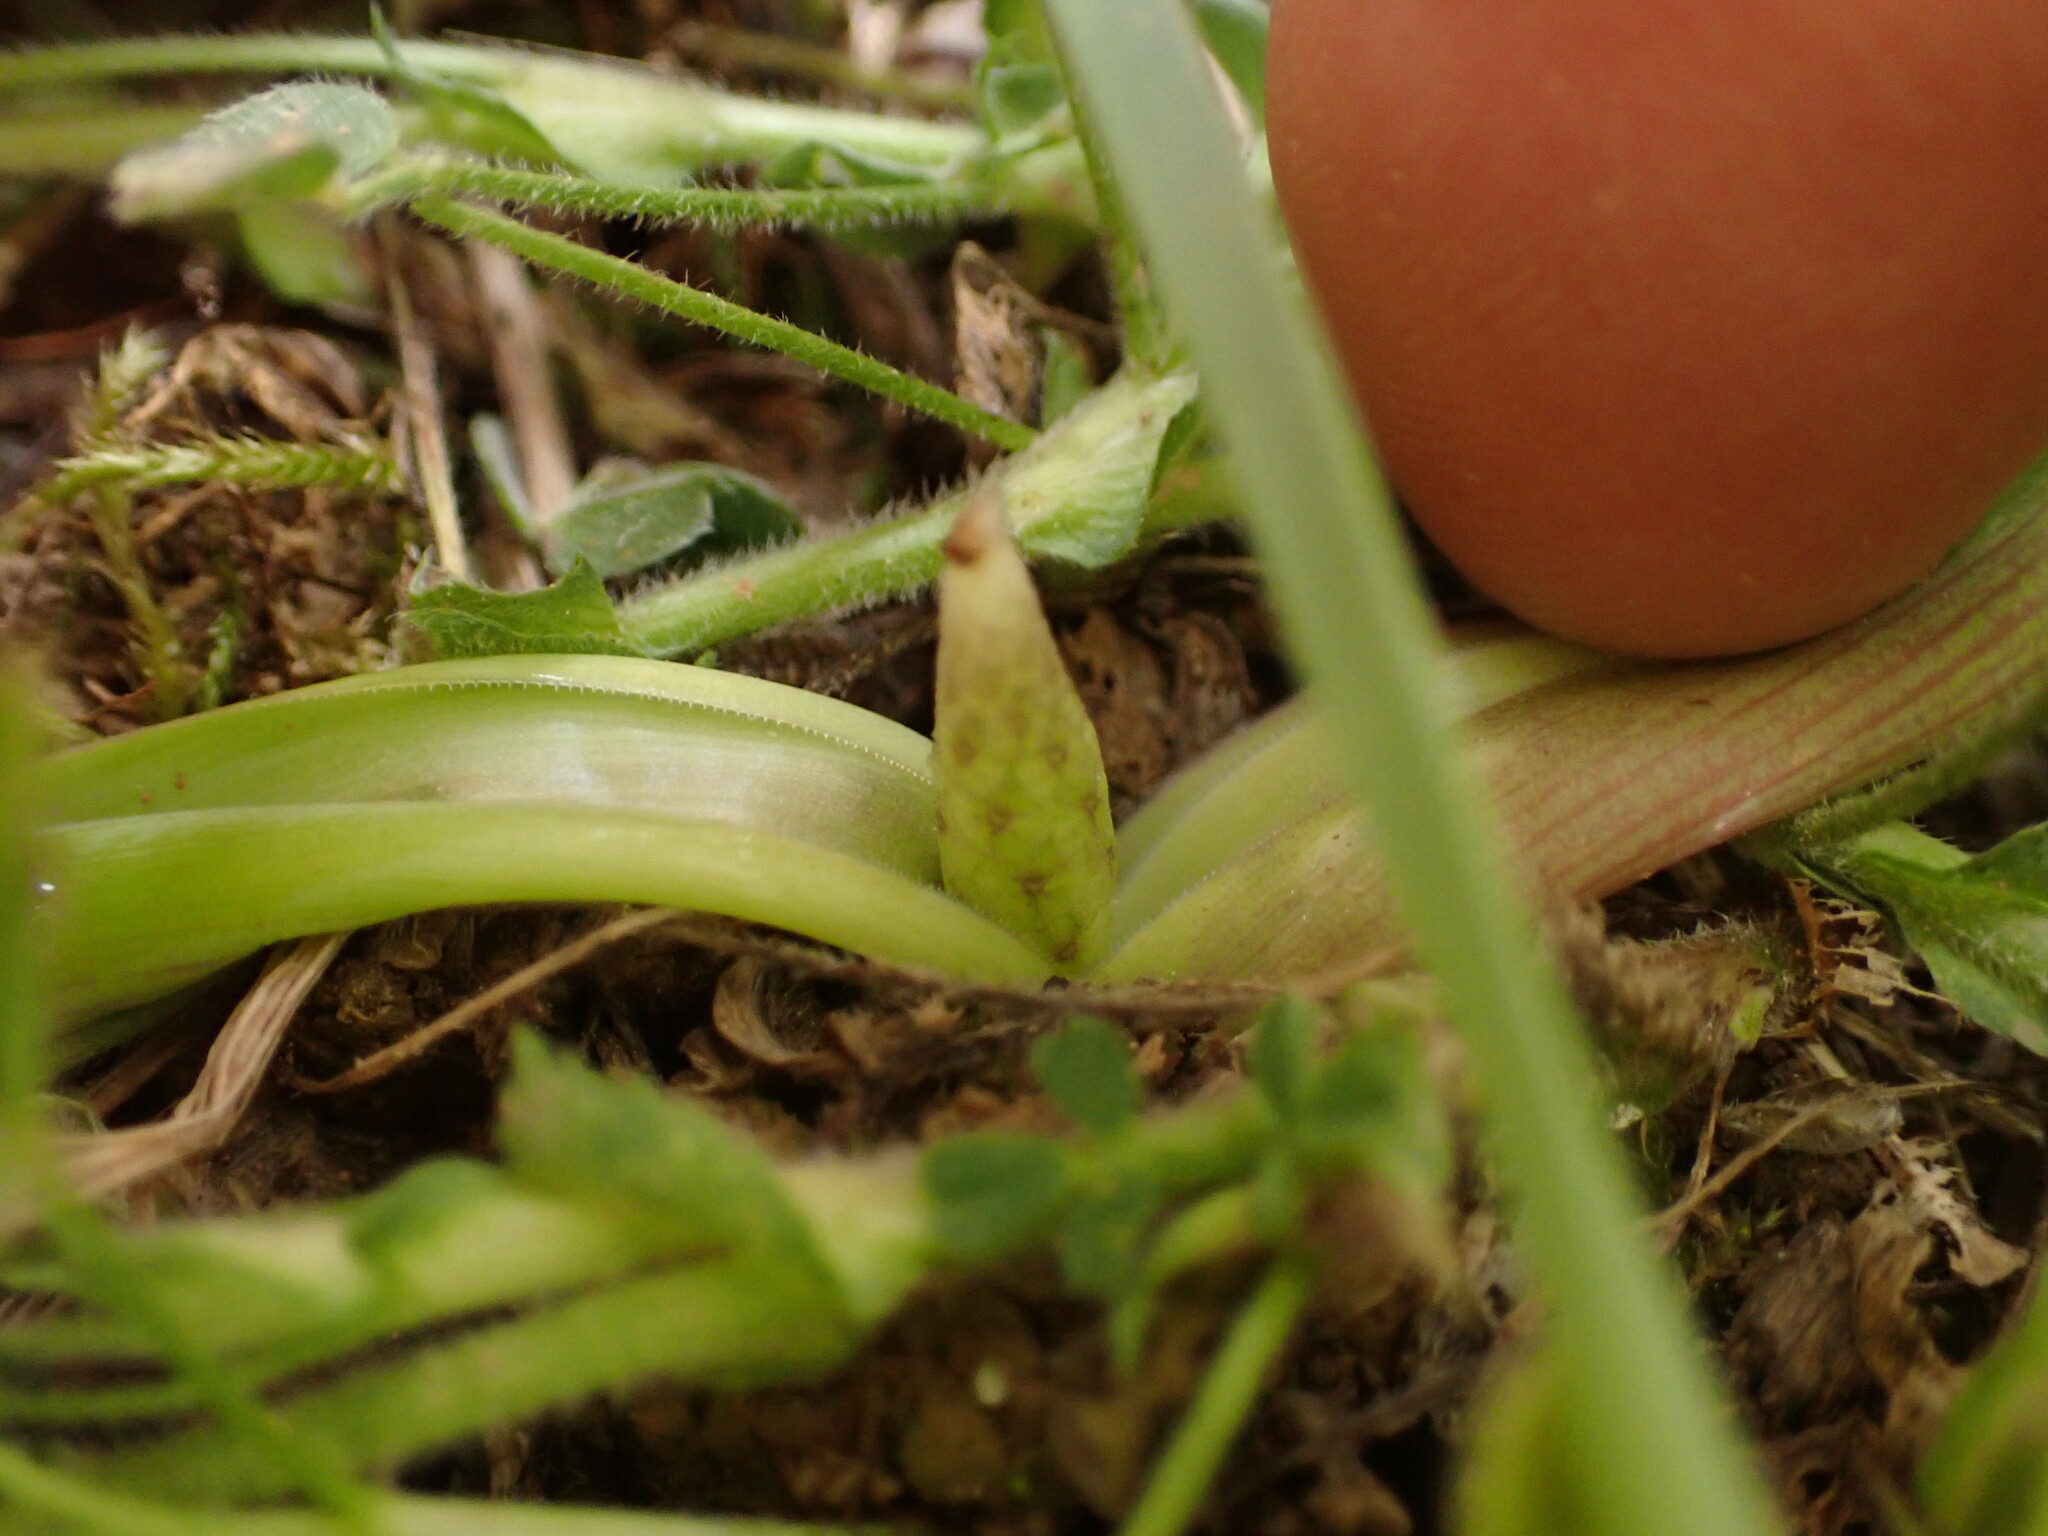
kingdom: Plantae
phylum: Tracheophyta
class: Liliopsida
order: Asparagales
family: Asparagaceae
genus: Muscari
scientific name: Muscari comosum
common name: Tassel hyacinth
